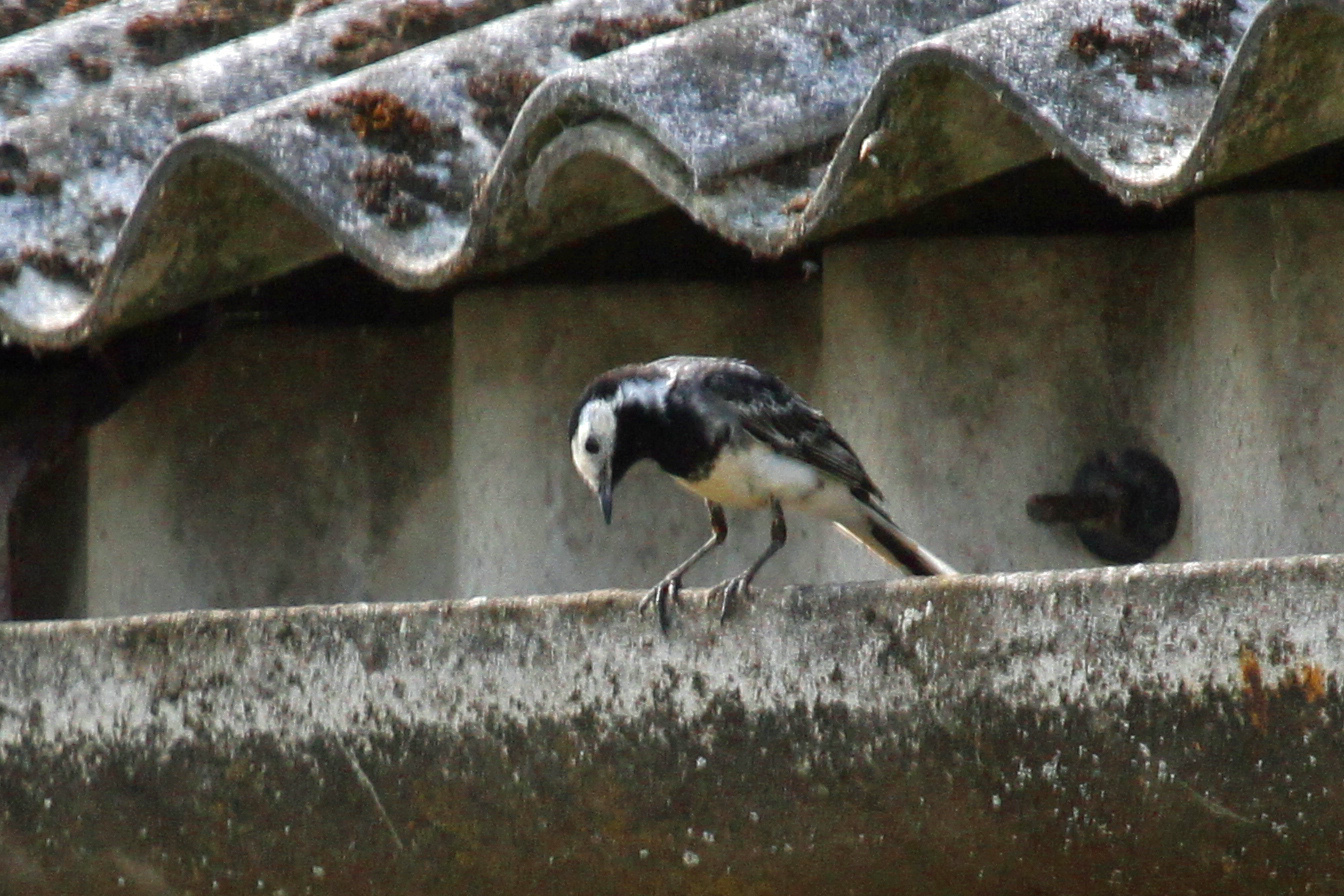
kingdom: Animalia
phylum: Chordata
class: Aves
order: Passeriformes
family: Motacillidae
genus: Motacilla
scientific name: Motacilla alba
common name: White wagtail
